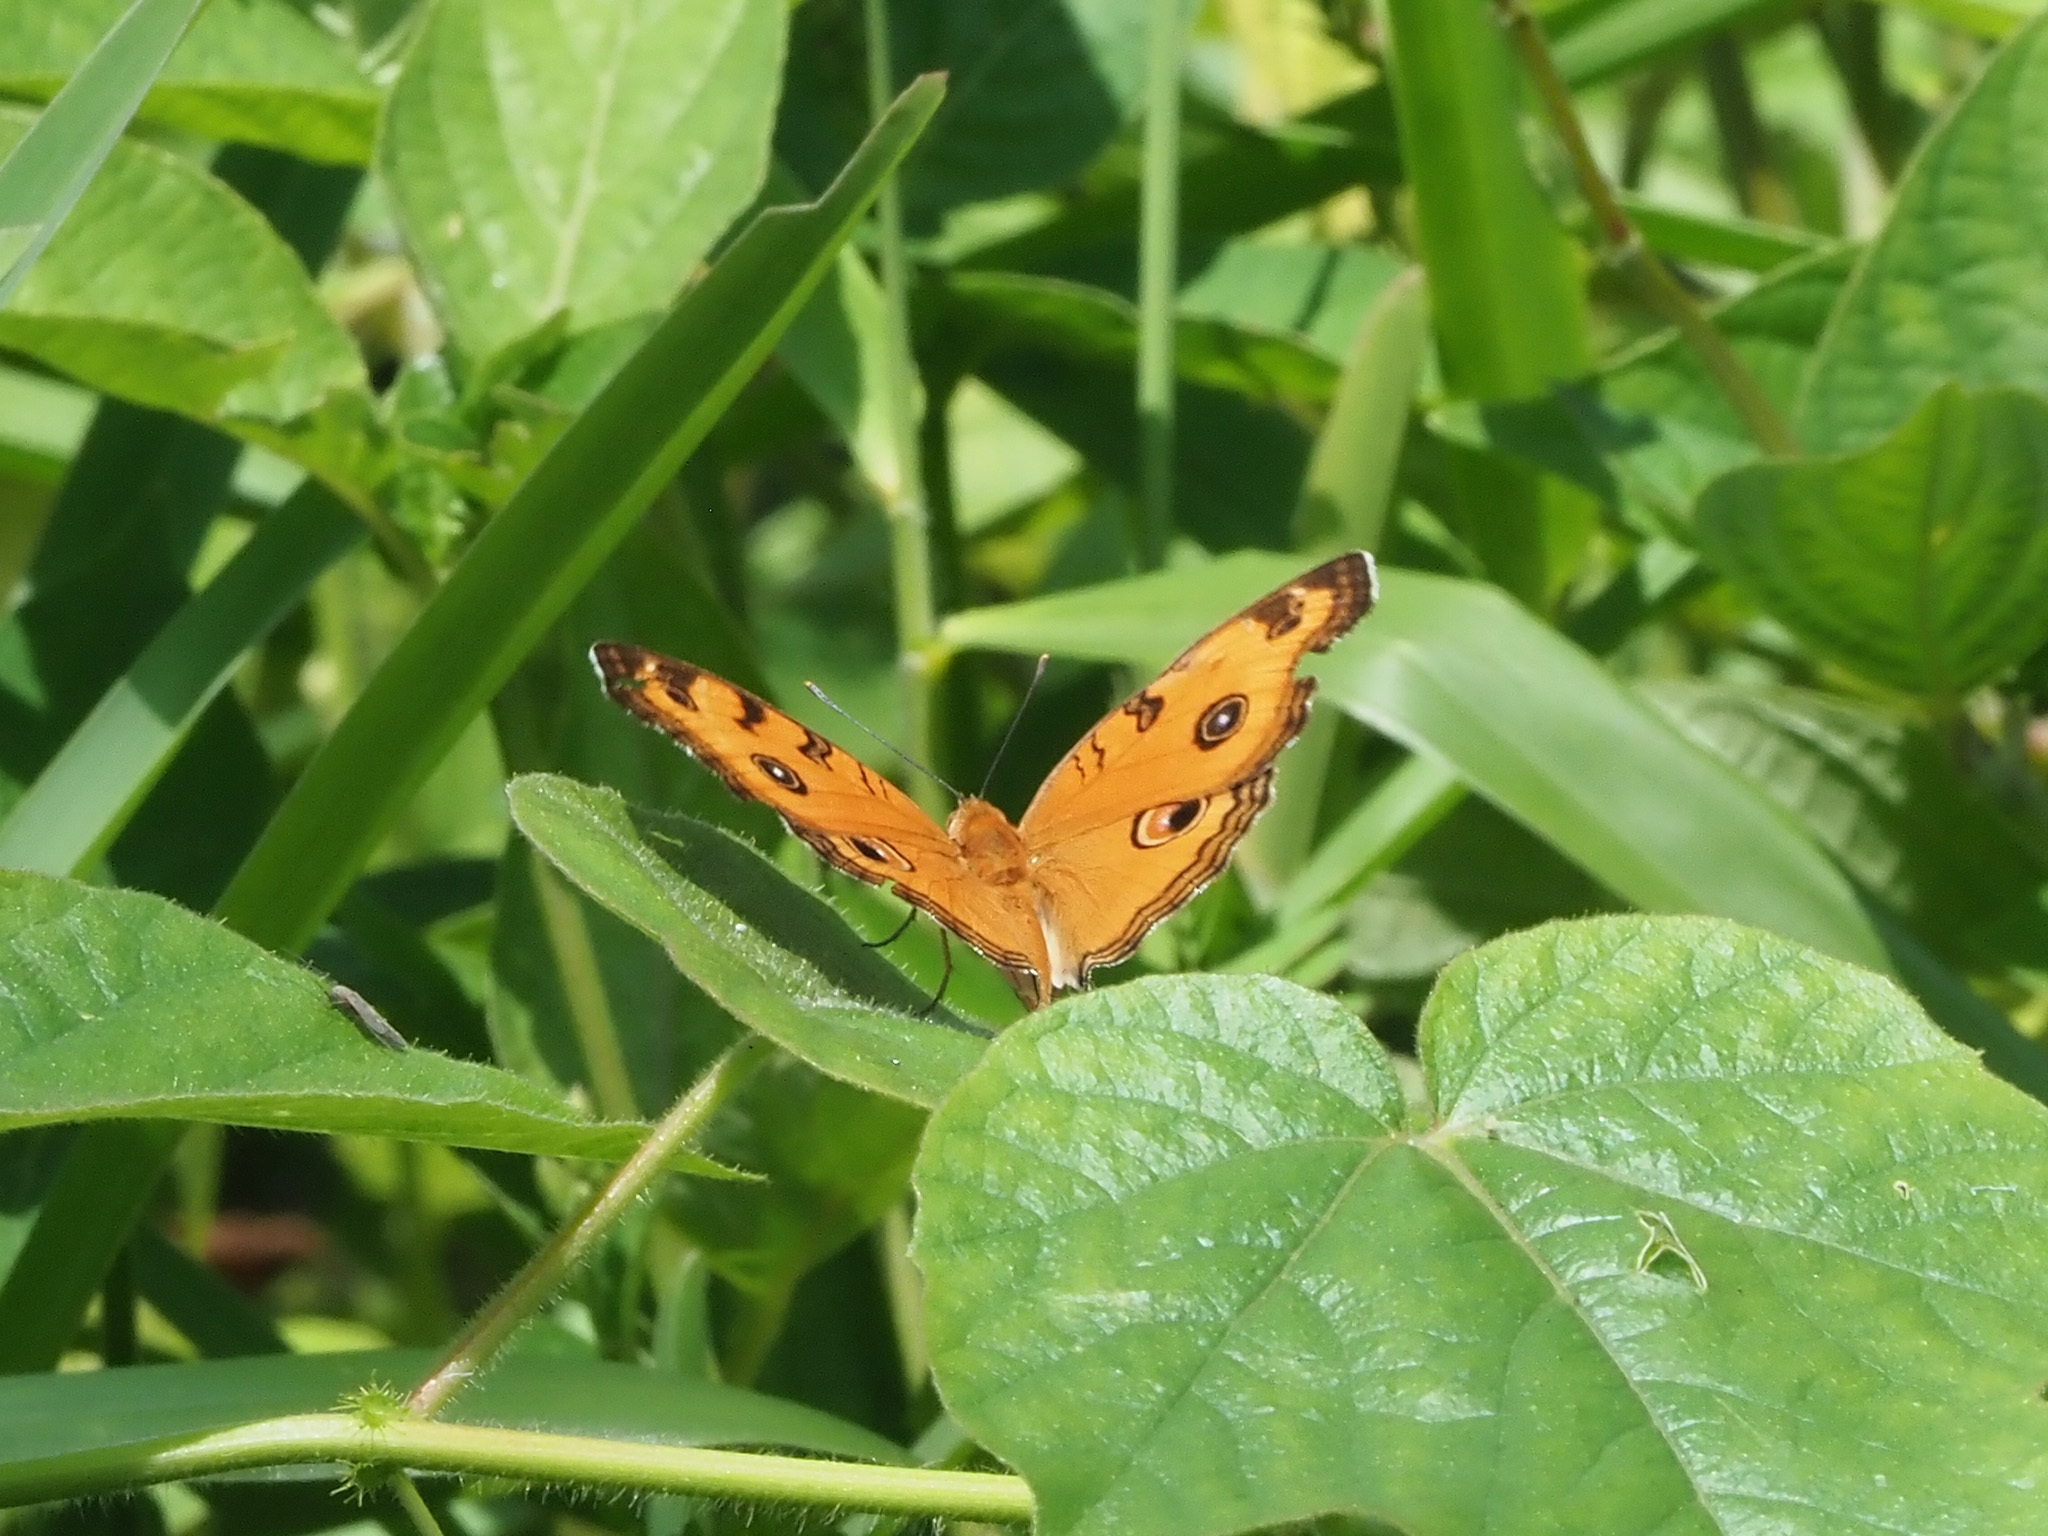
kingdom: Animalia
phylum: Arthropoda
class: Insecta
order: Lepidoptera
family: Nymphalidae
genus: Junonia
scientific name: Junonia almana
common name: Peacock pansy
